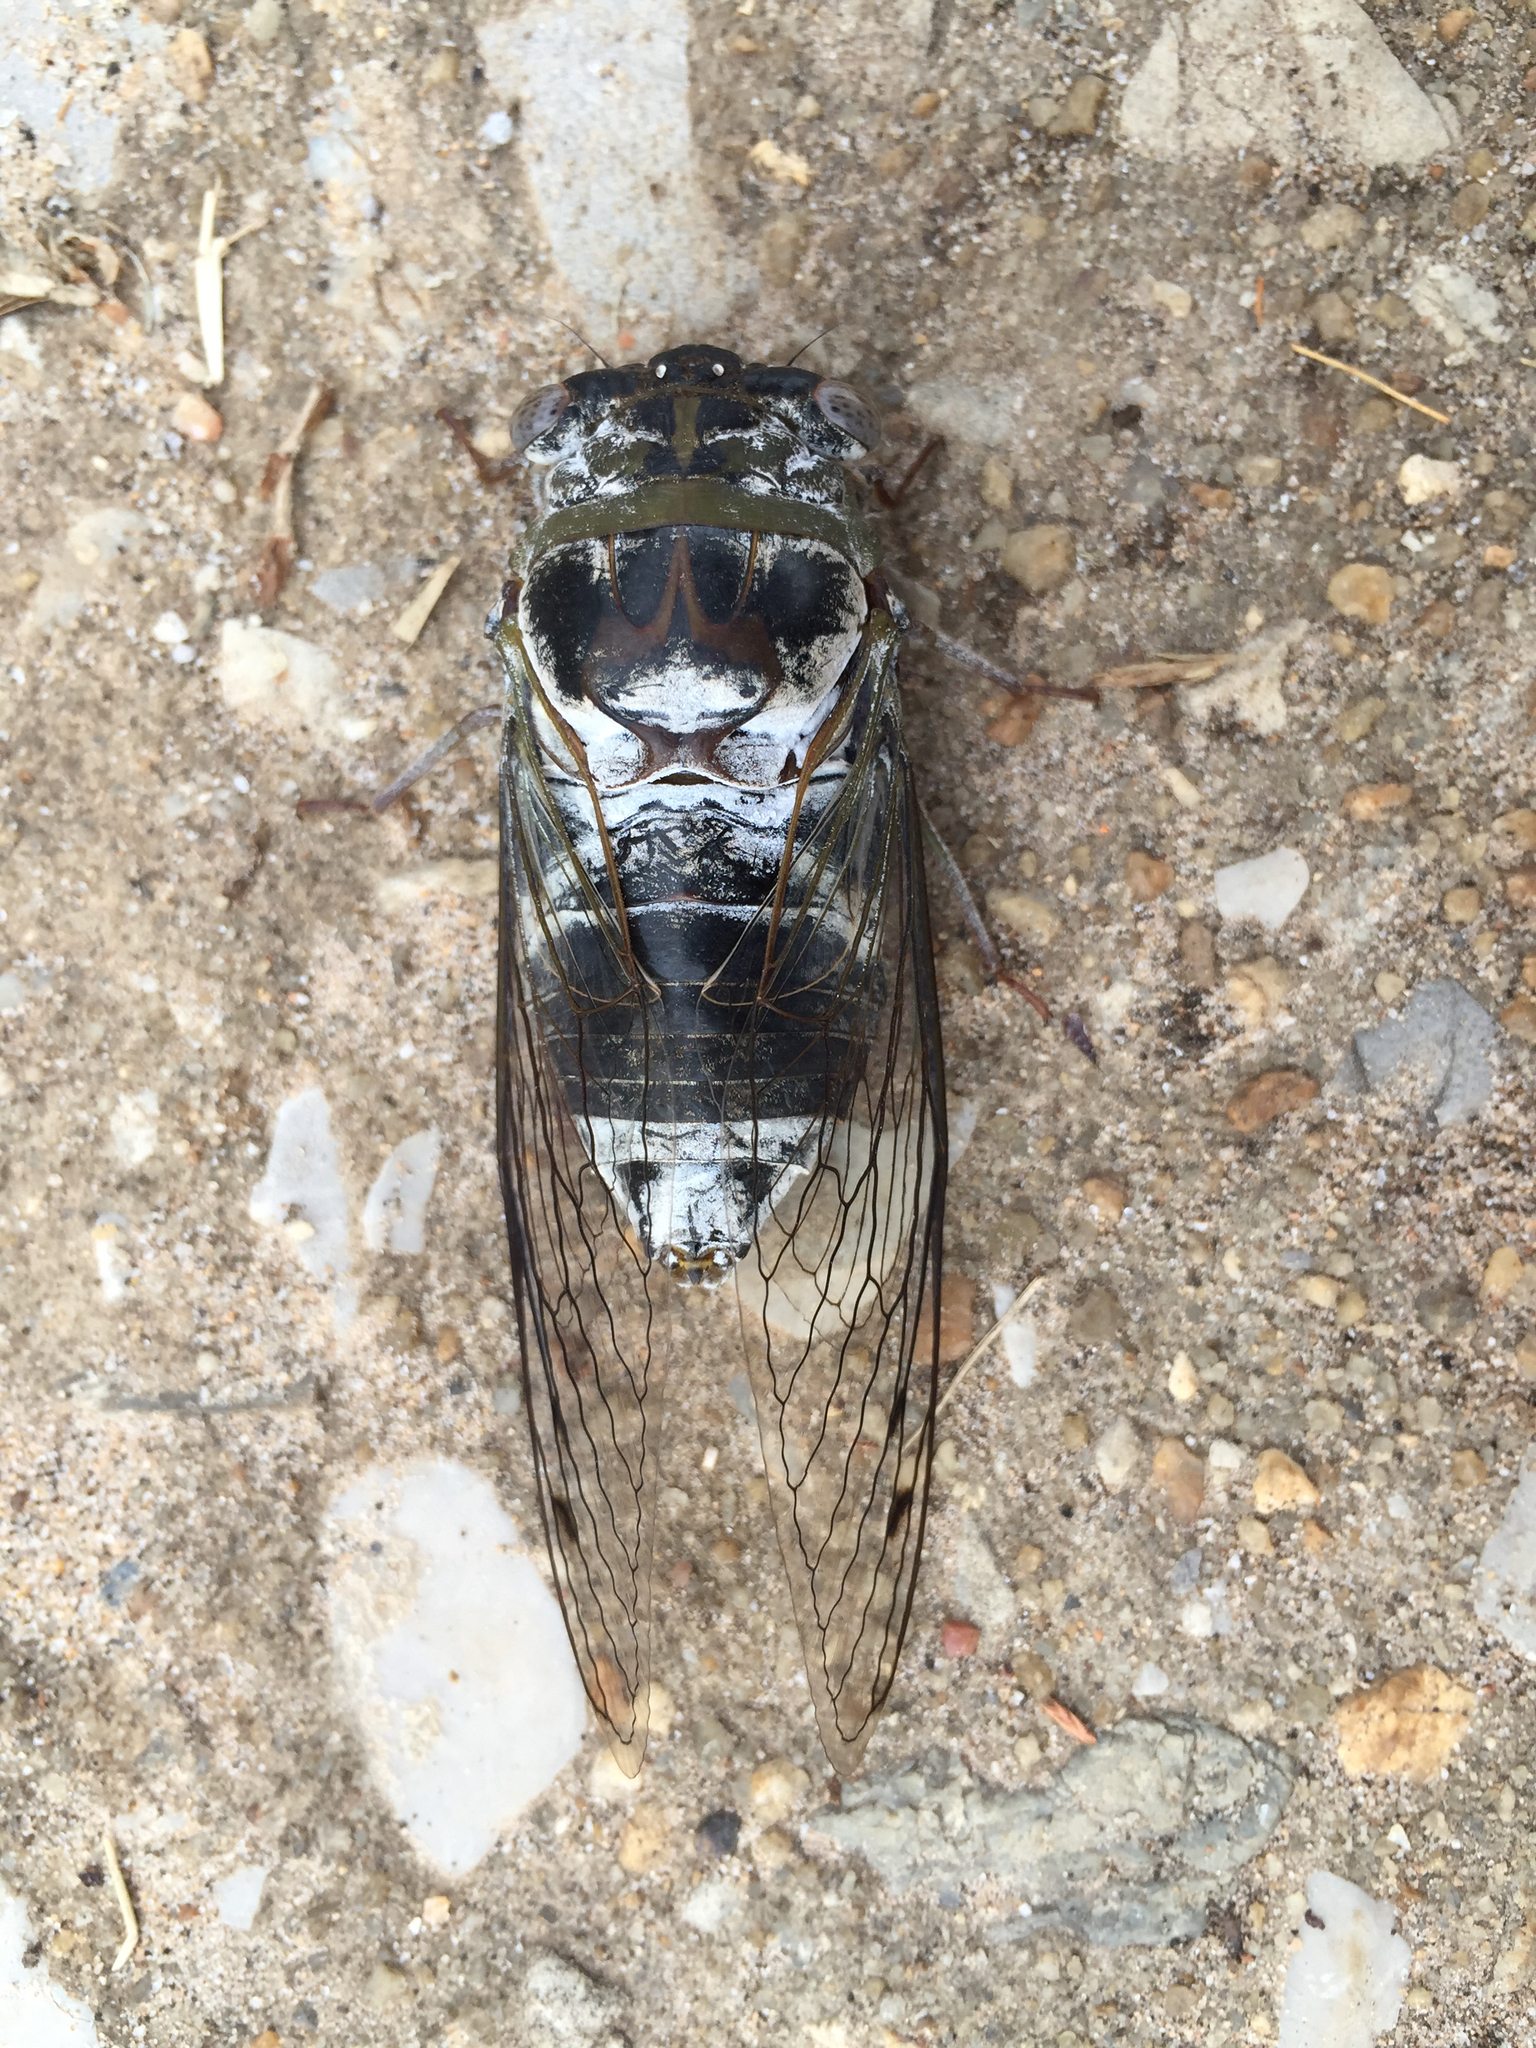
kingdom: Animalia
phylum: Arthropoda
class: Insecta
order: Hemiptera
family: Cicadidae
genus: Diceroprocta
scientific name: Diceroprocta grossa
